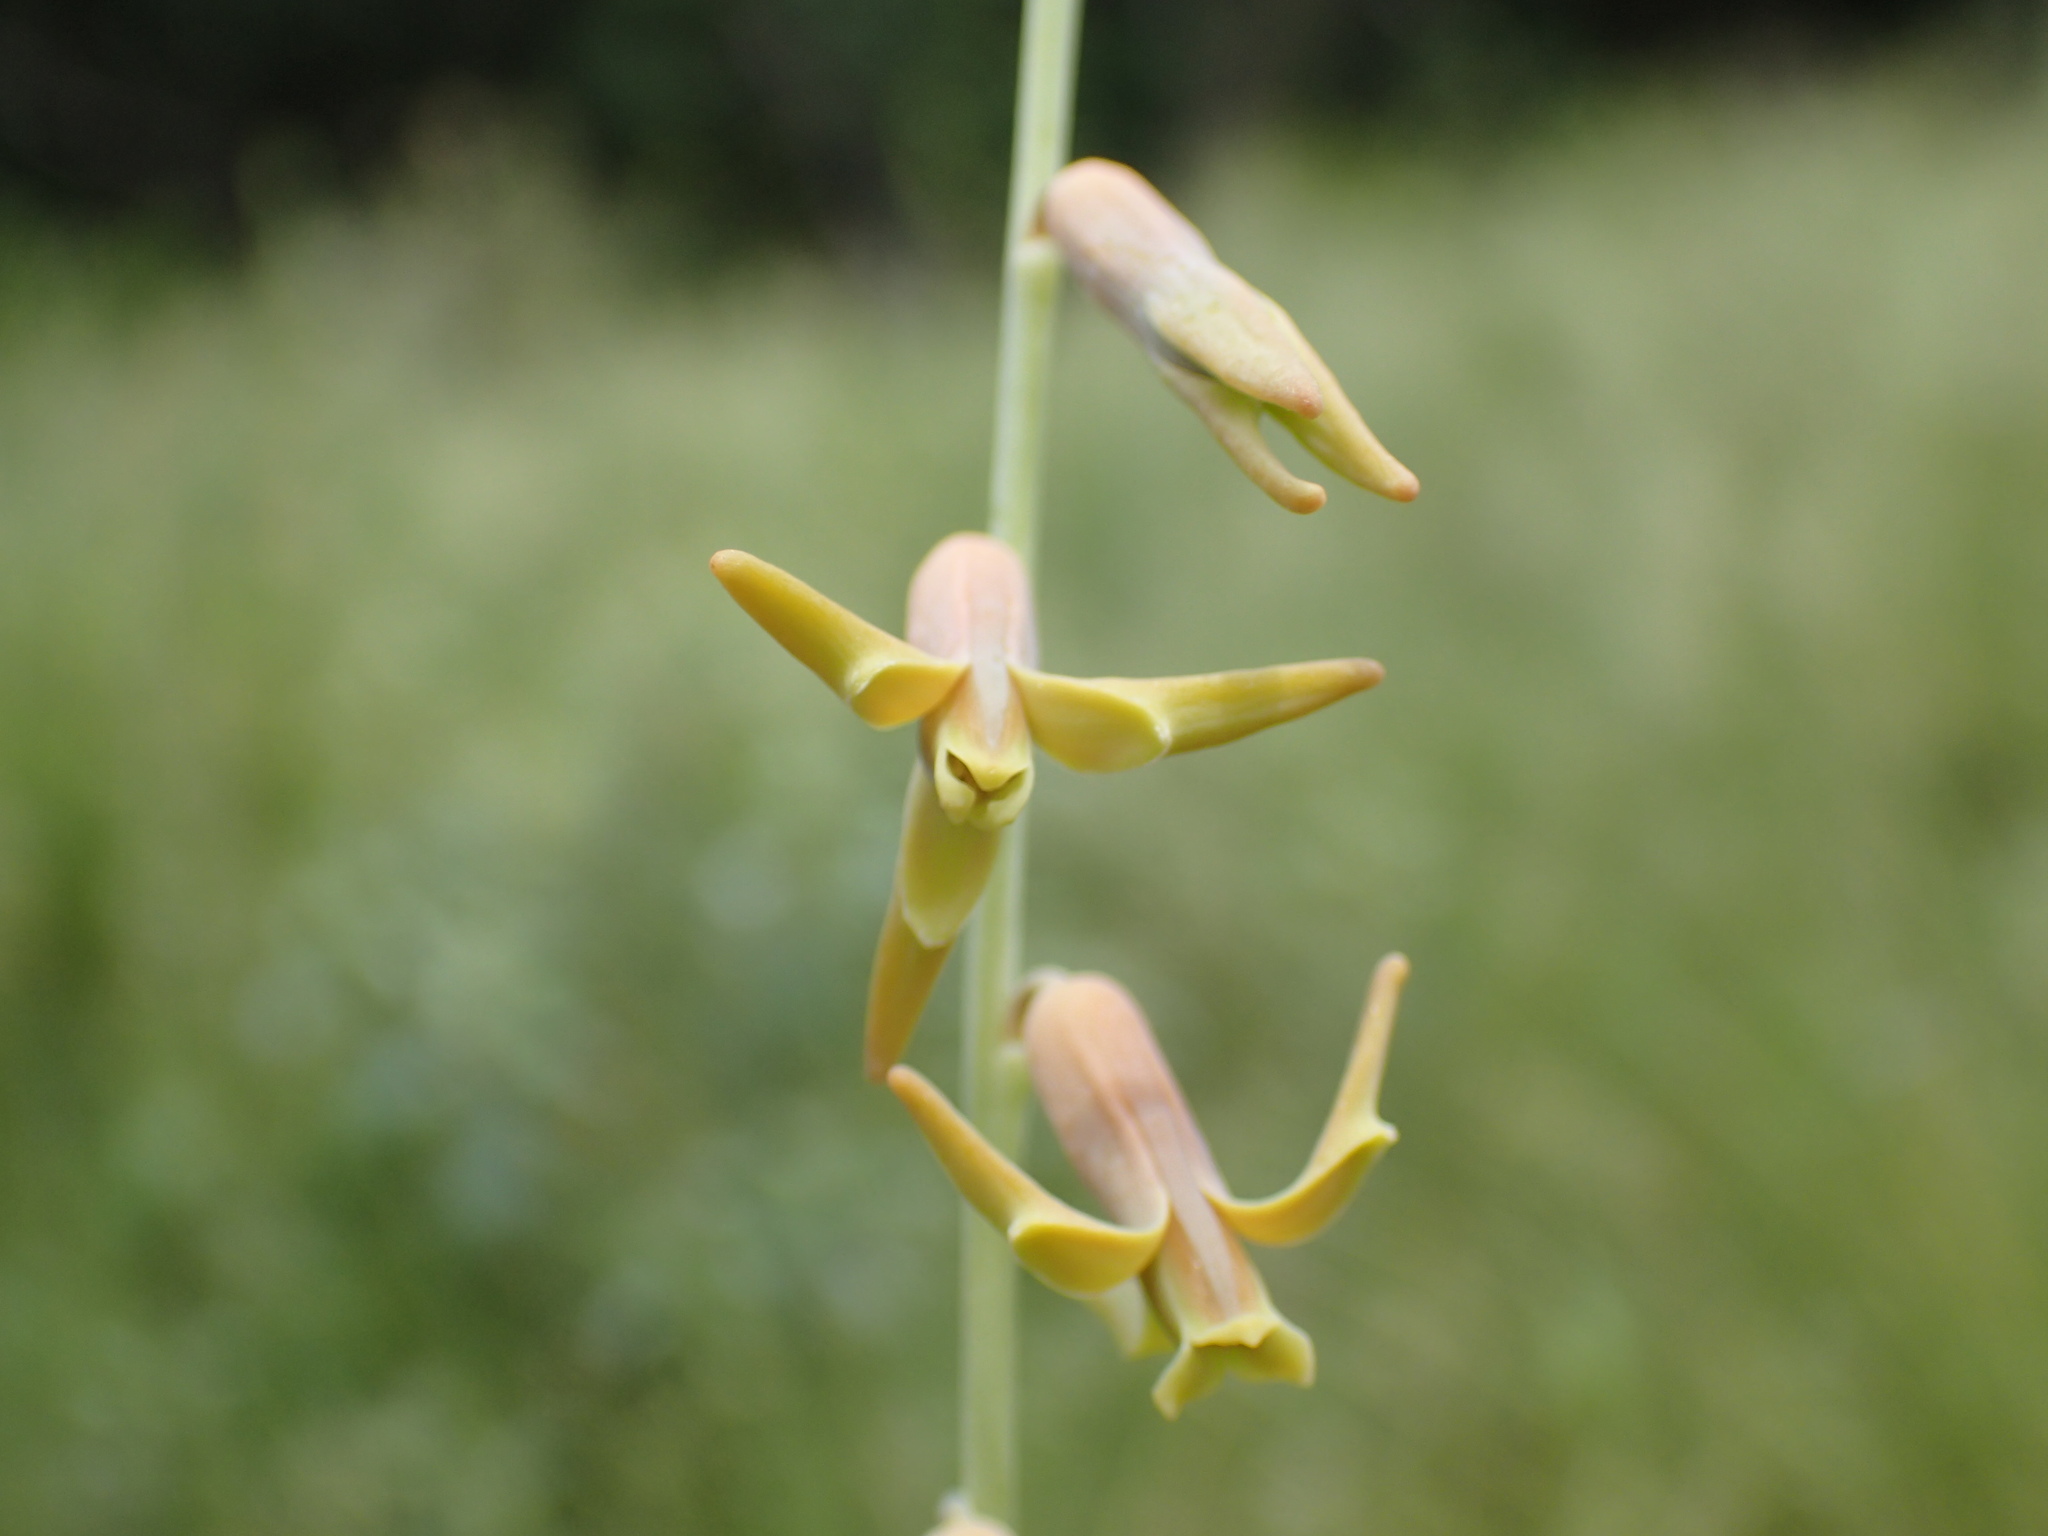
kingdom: Plantae
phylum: Tracheophyta
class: Liliopsida
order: Asparagales
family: Asparagaceae
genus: Dipcadi
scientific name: Dipcadi marlothii
